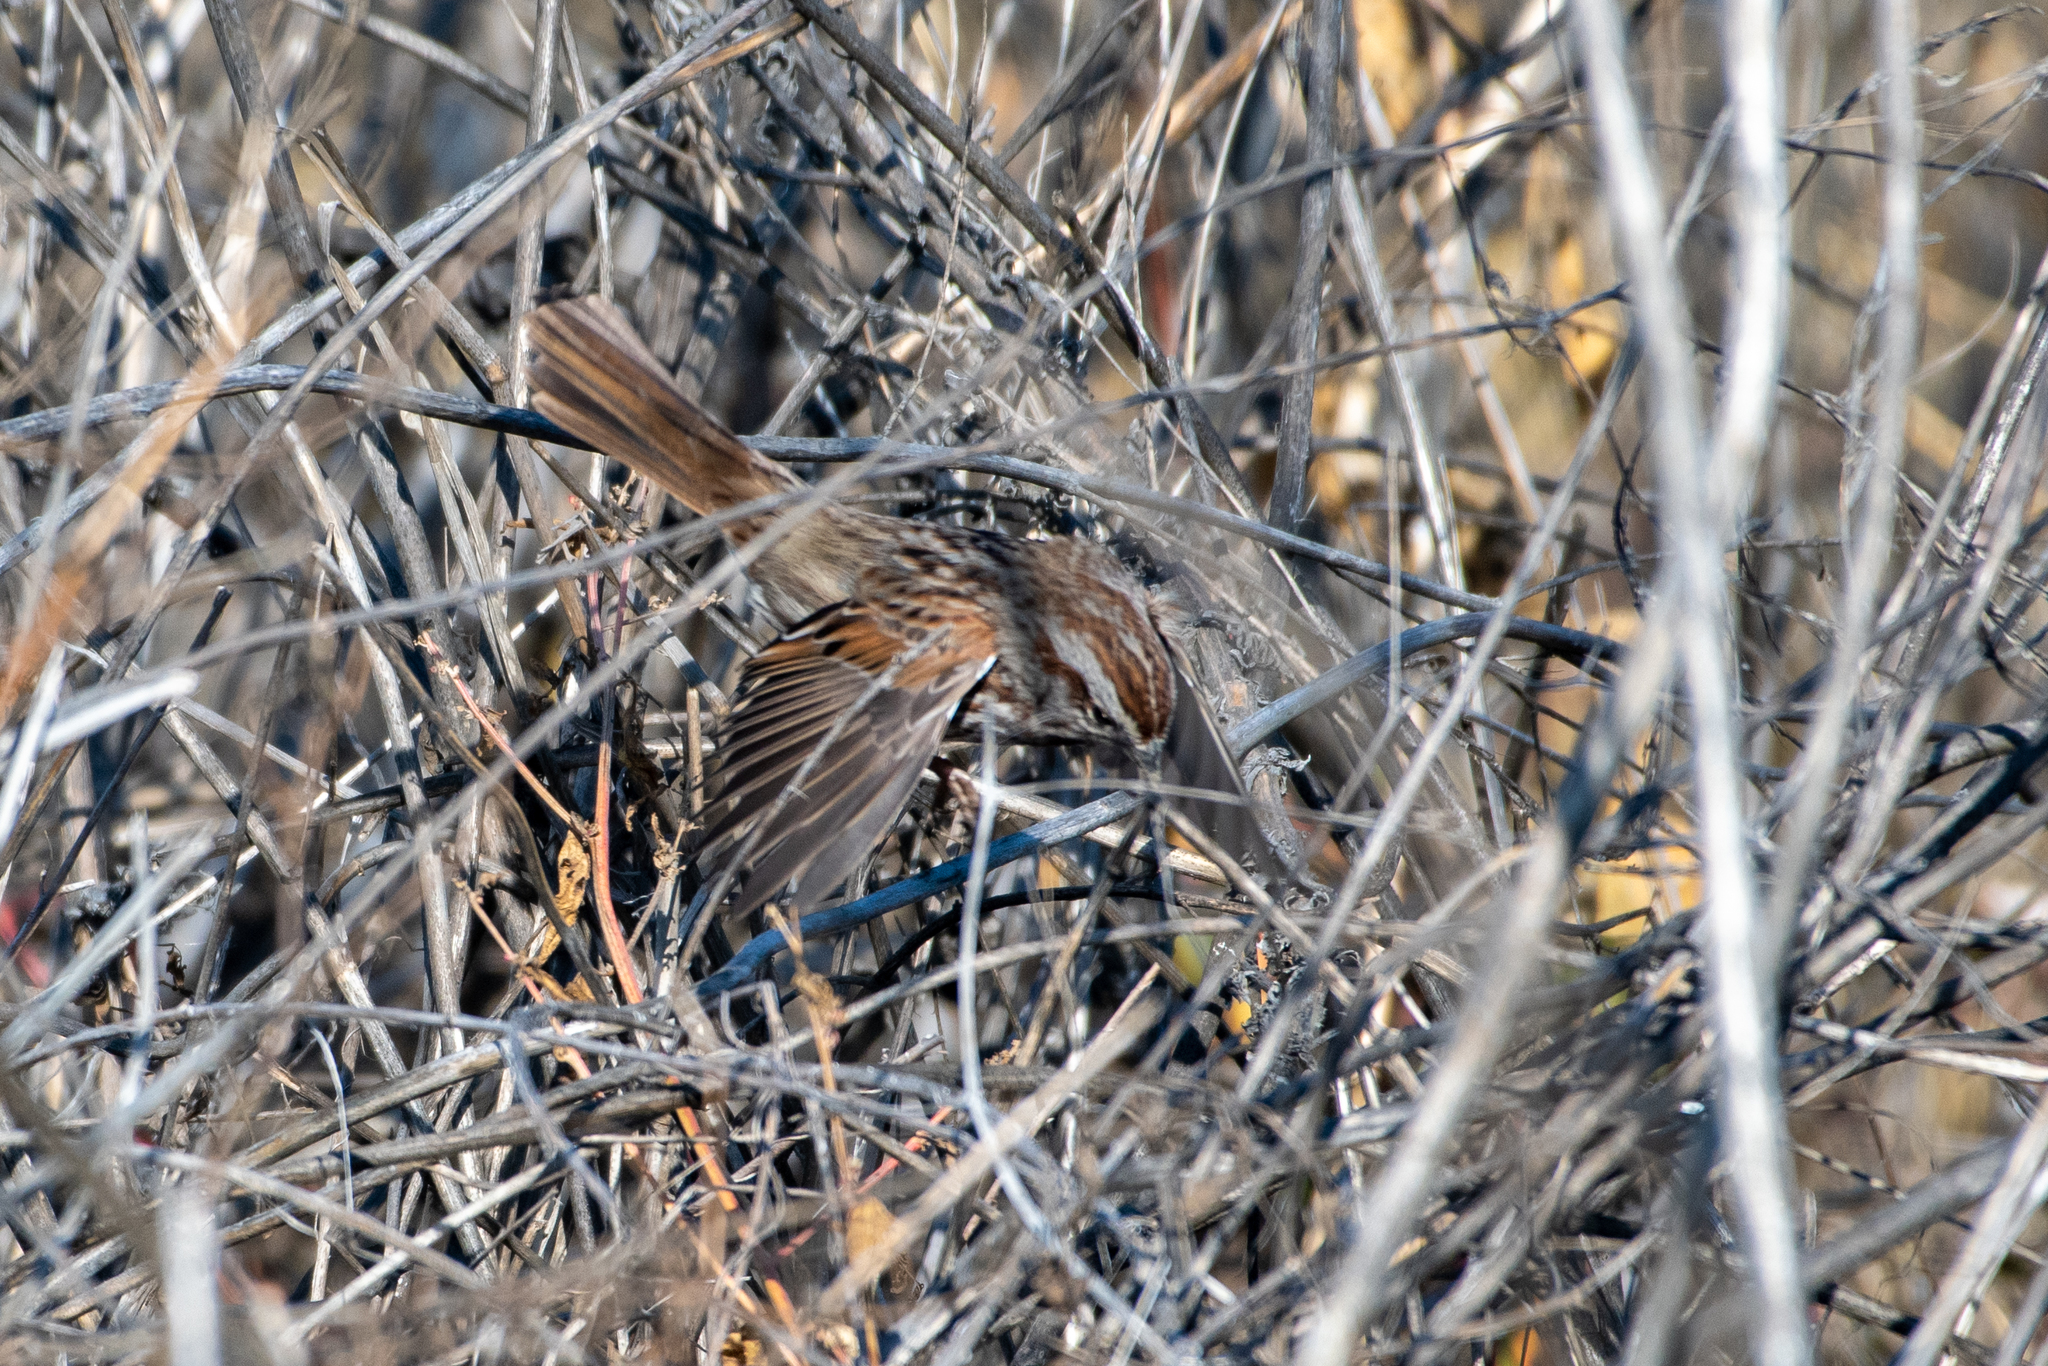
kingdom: Animalia
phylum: Chordata
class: Aves
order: Passeriformes
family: Passerellidae
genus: Melospiza
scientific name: Melospiza melodia
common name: Song sparrow
